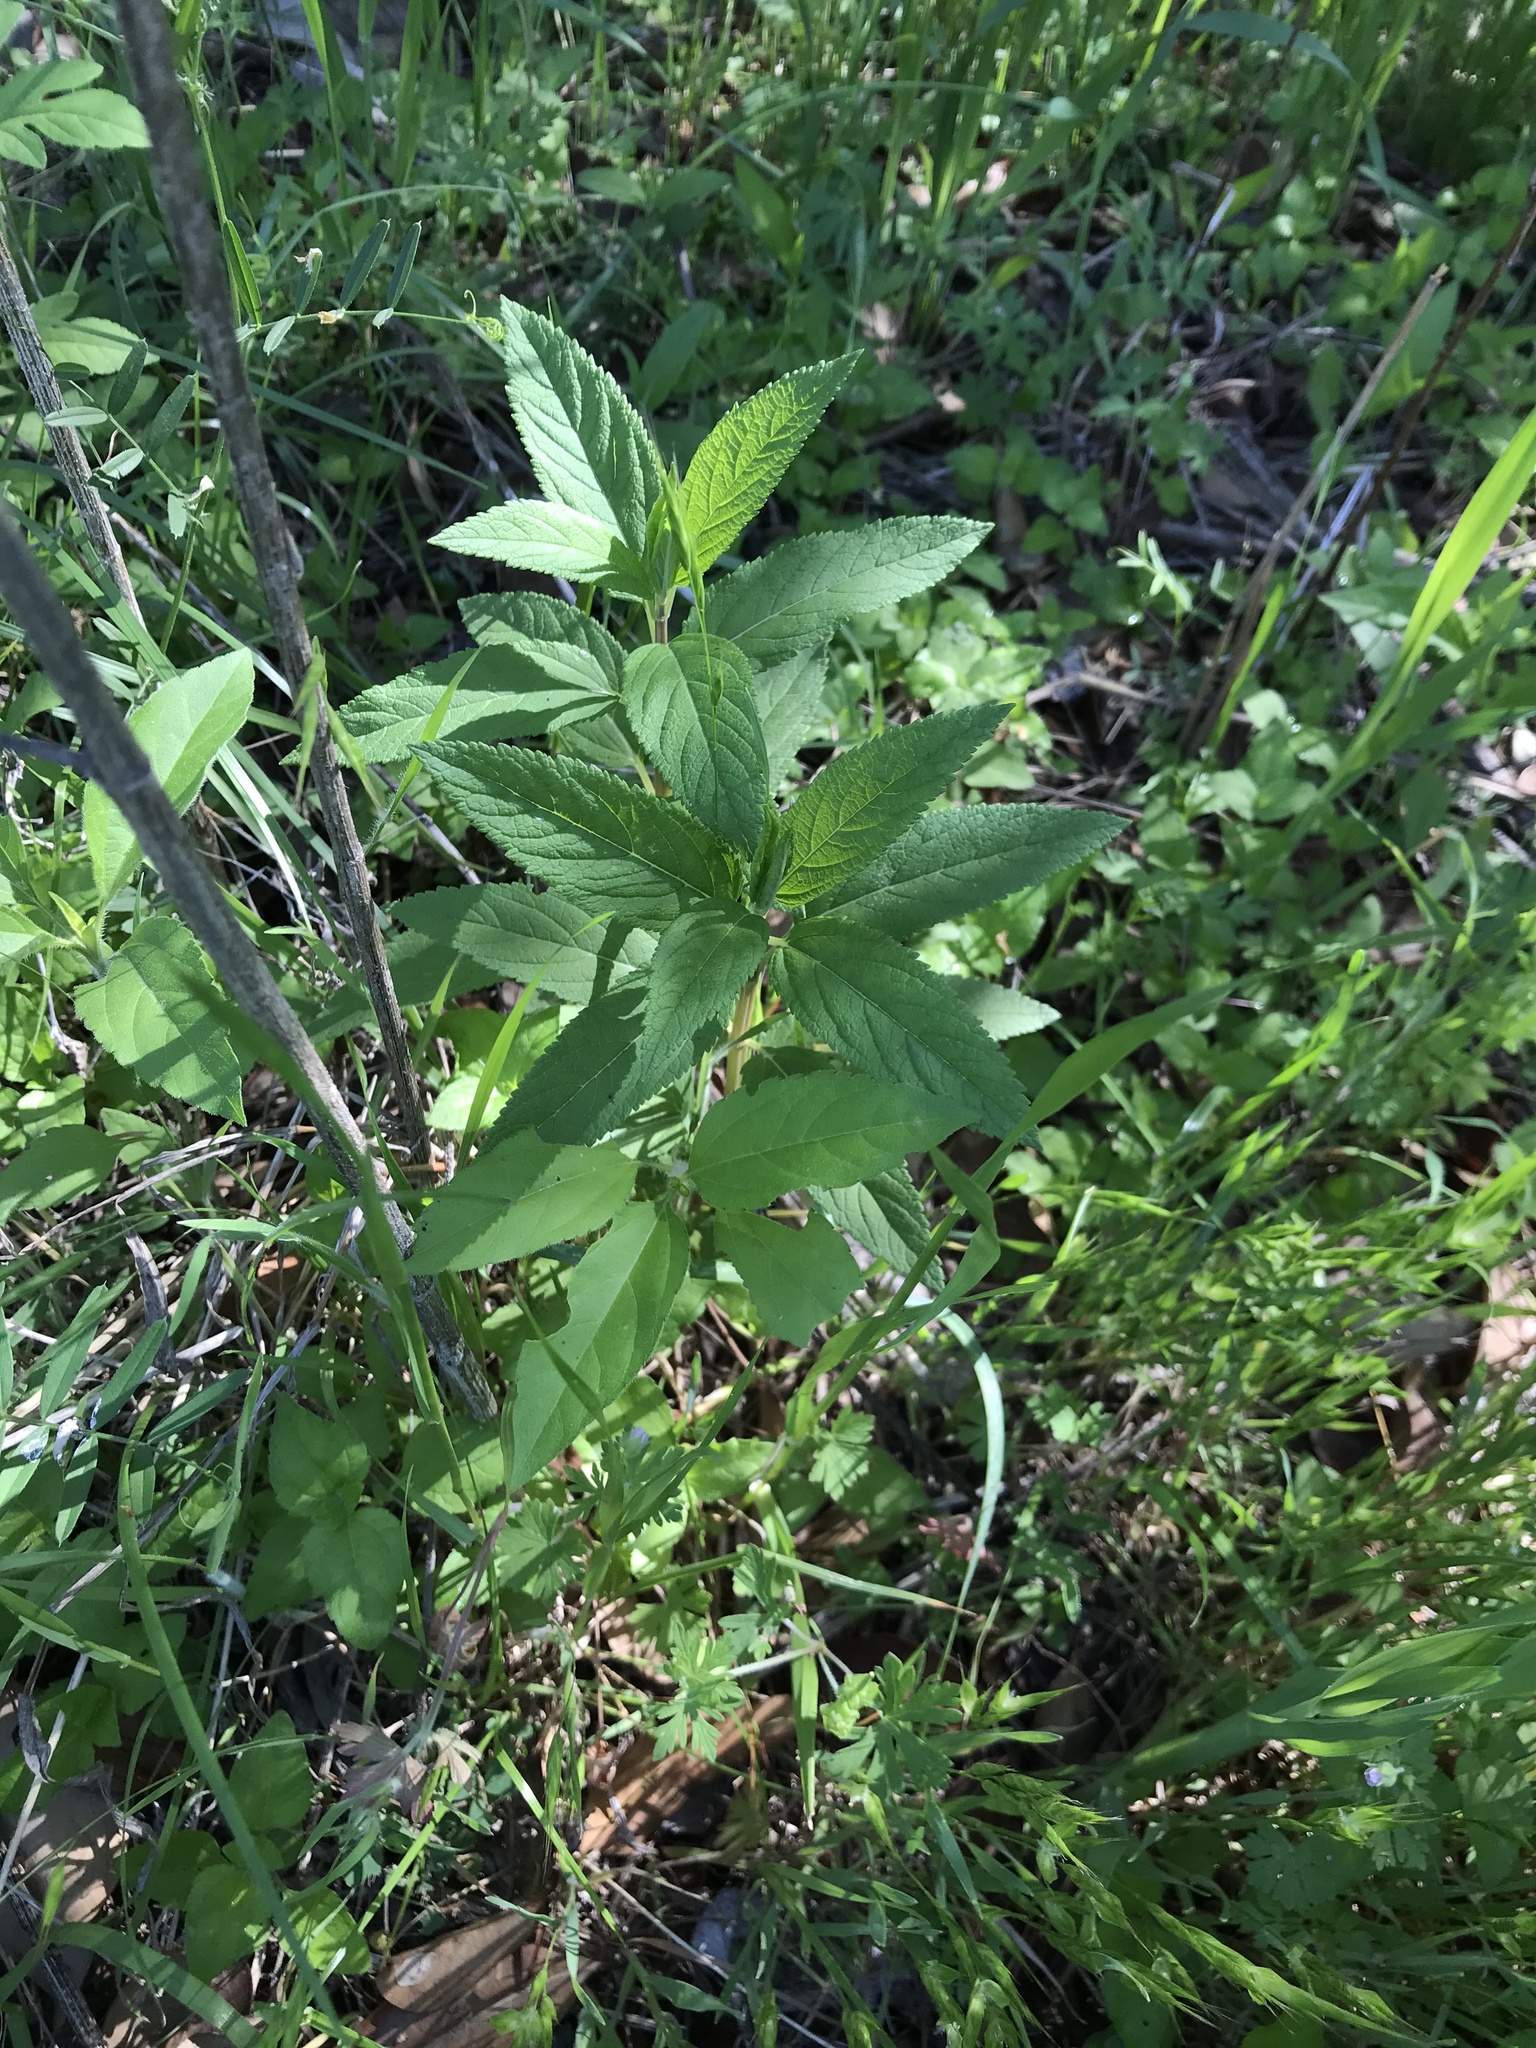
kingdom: Plantae
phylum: Tracheophyta
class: Magnoliopsida
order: Lamiales
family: Lamiaceae
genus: Teucrium
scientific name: Teucrium canadense
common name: American germander
